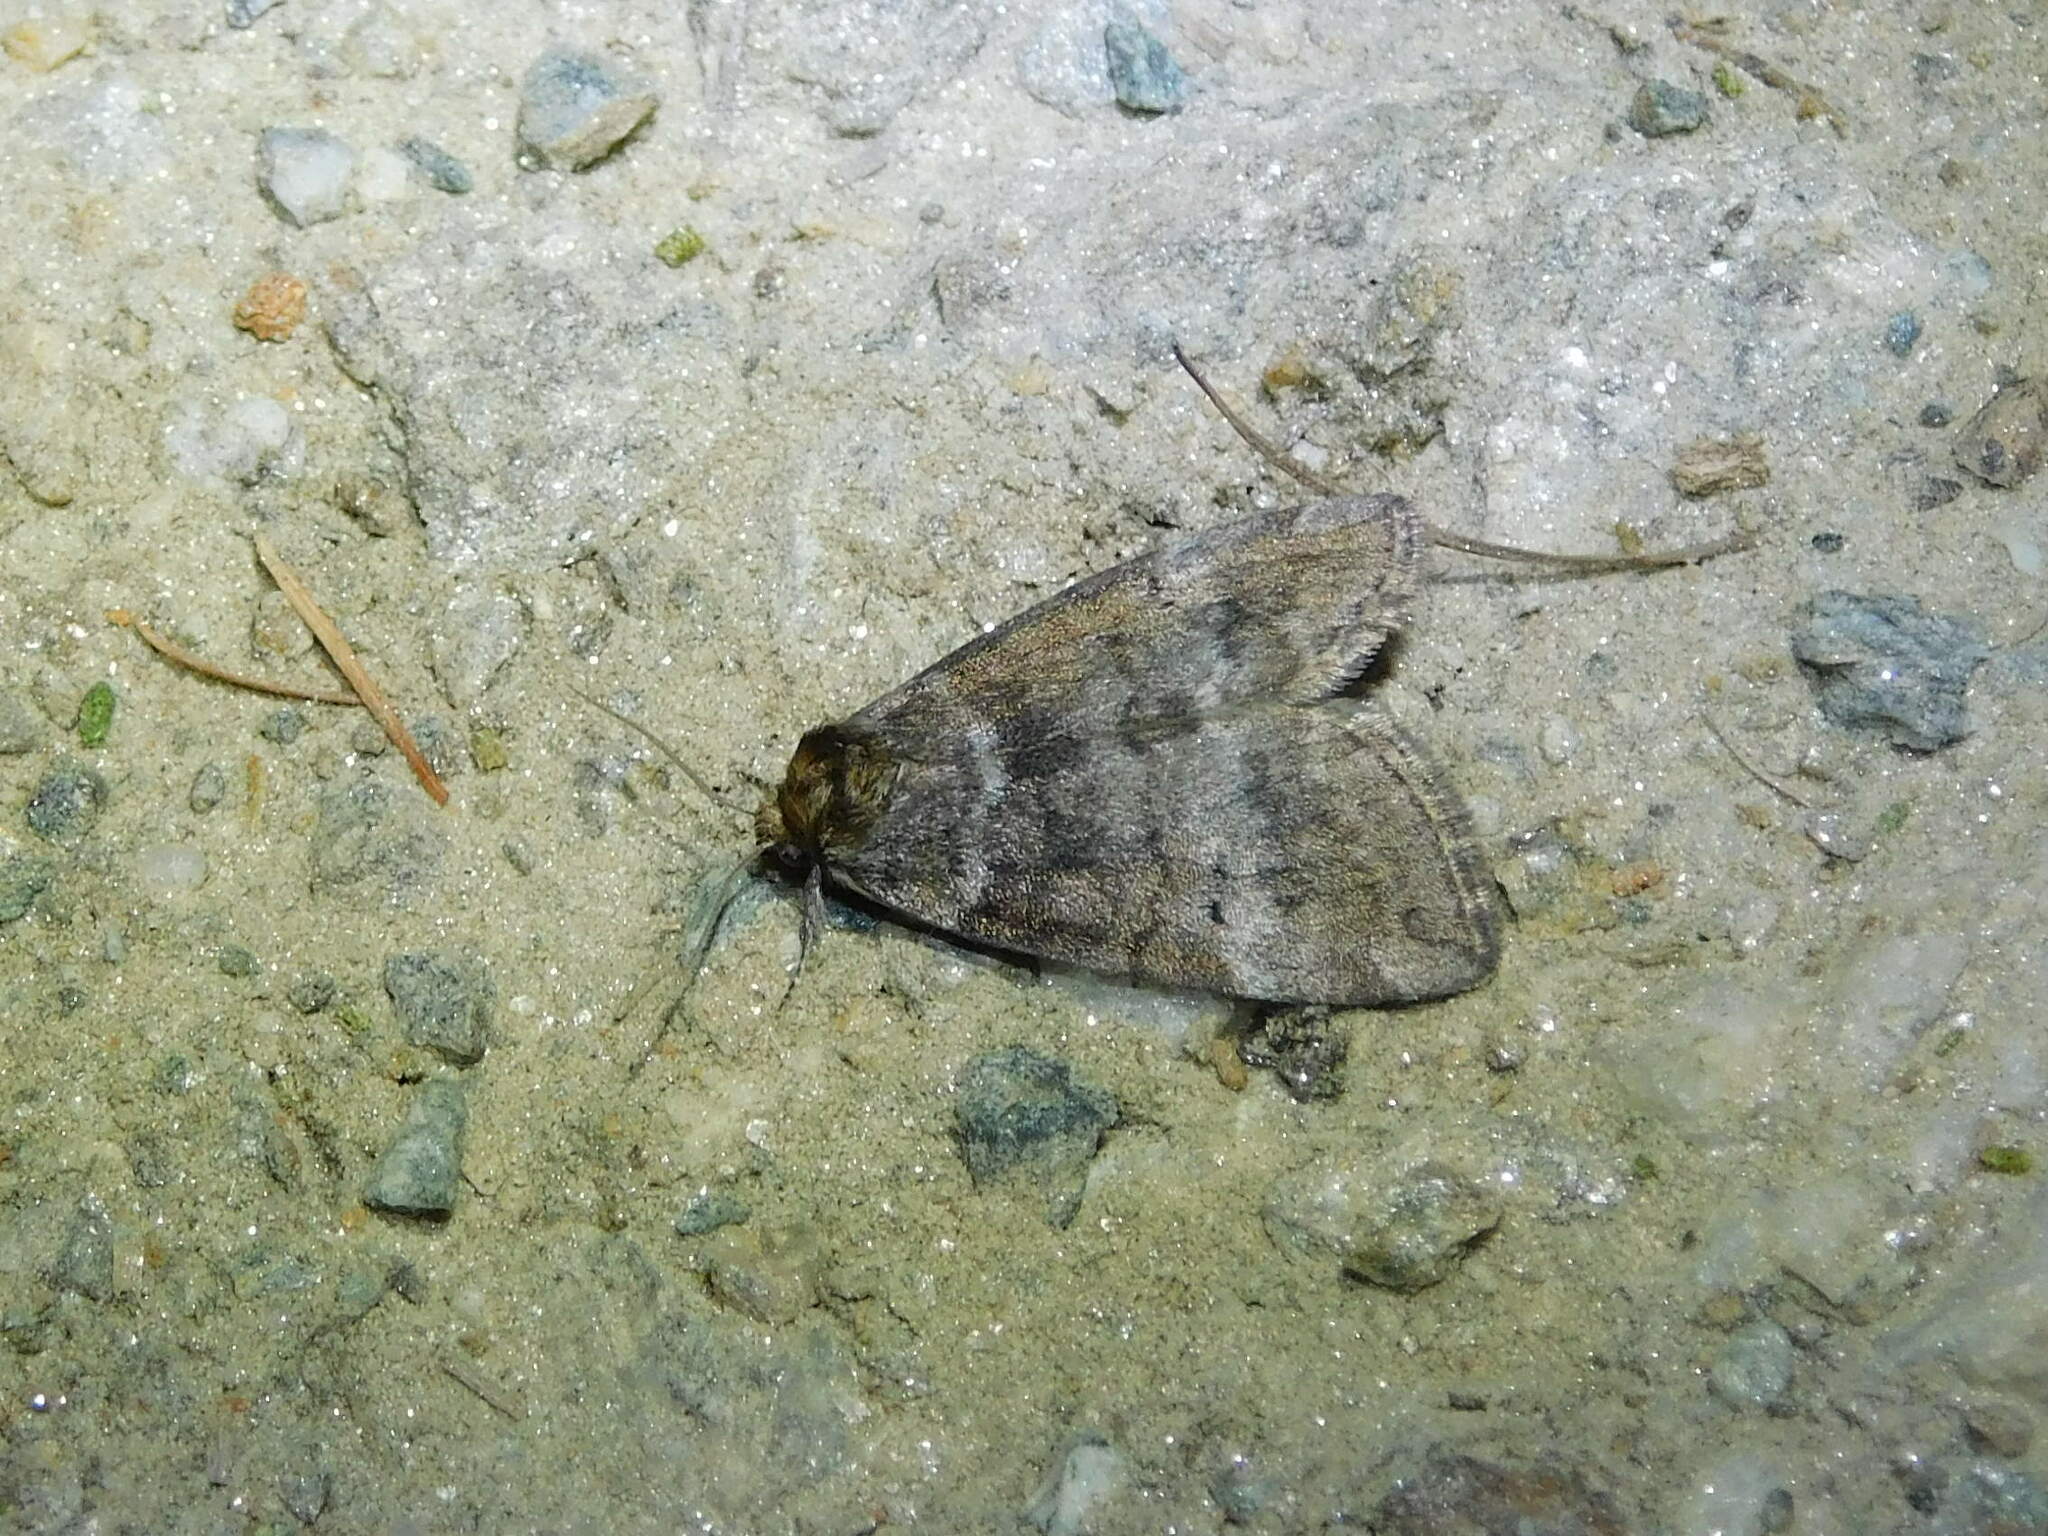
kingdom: Animalia
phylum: Arthropoda
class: Insecta
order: Lepidoptera
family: Drepanidae
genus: Ochropacha
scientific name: Ochropacha duplaris
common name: Common lutestring
